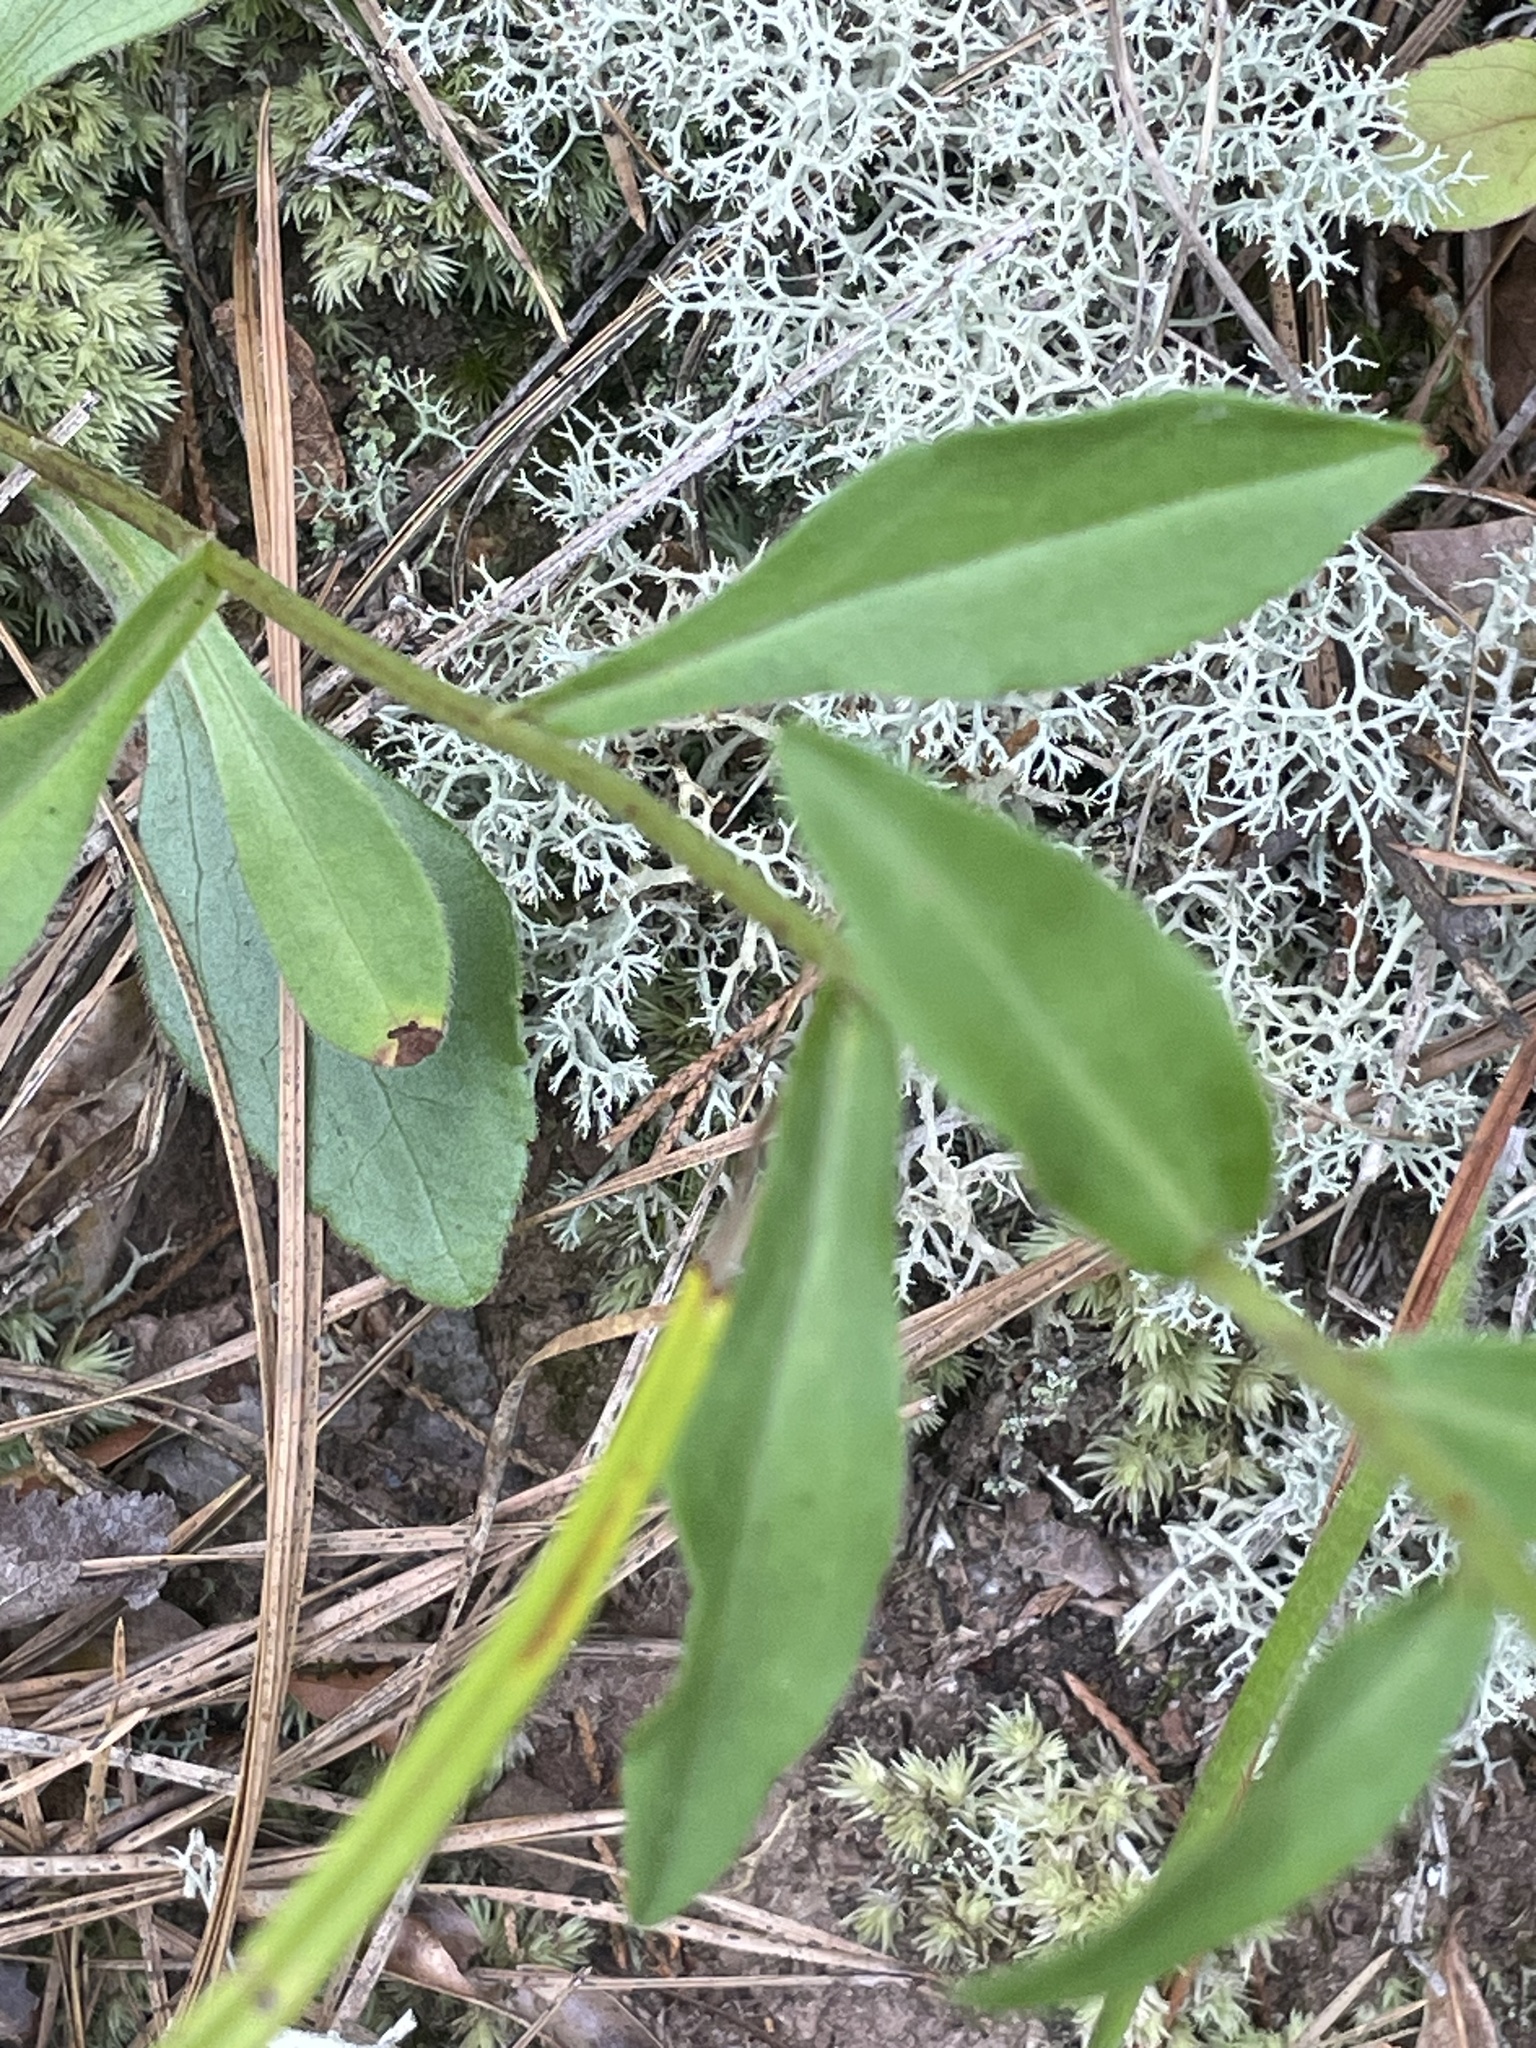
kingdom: Plantae
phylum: Tracheophyta
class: Magnoliopsida
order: Asterales
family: Asteraceae
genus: Sericocarpus
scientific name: Sericocarpus asteroides
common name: Toothed white-top aster
